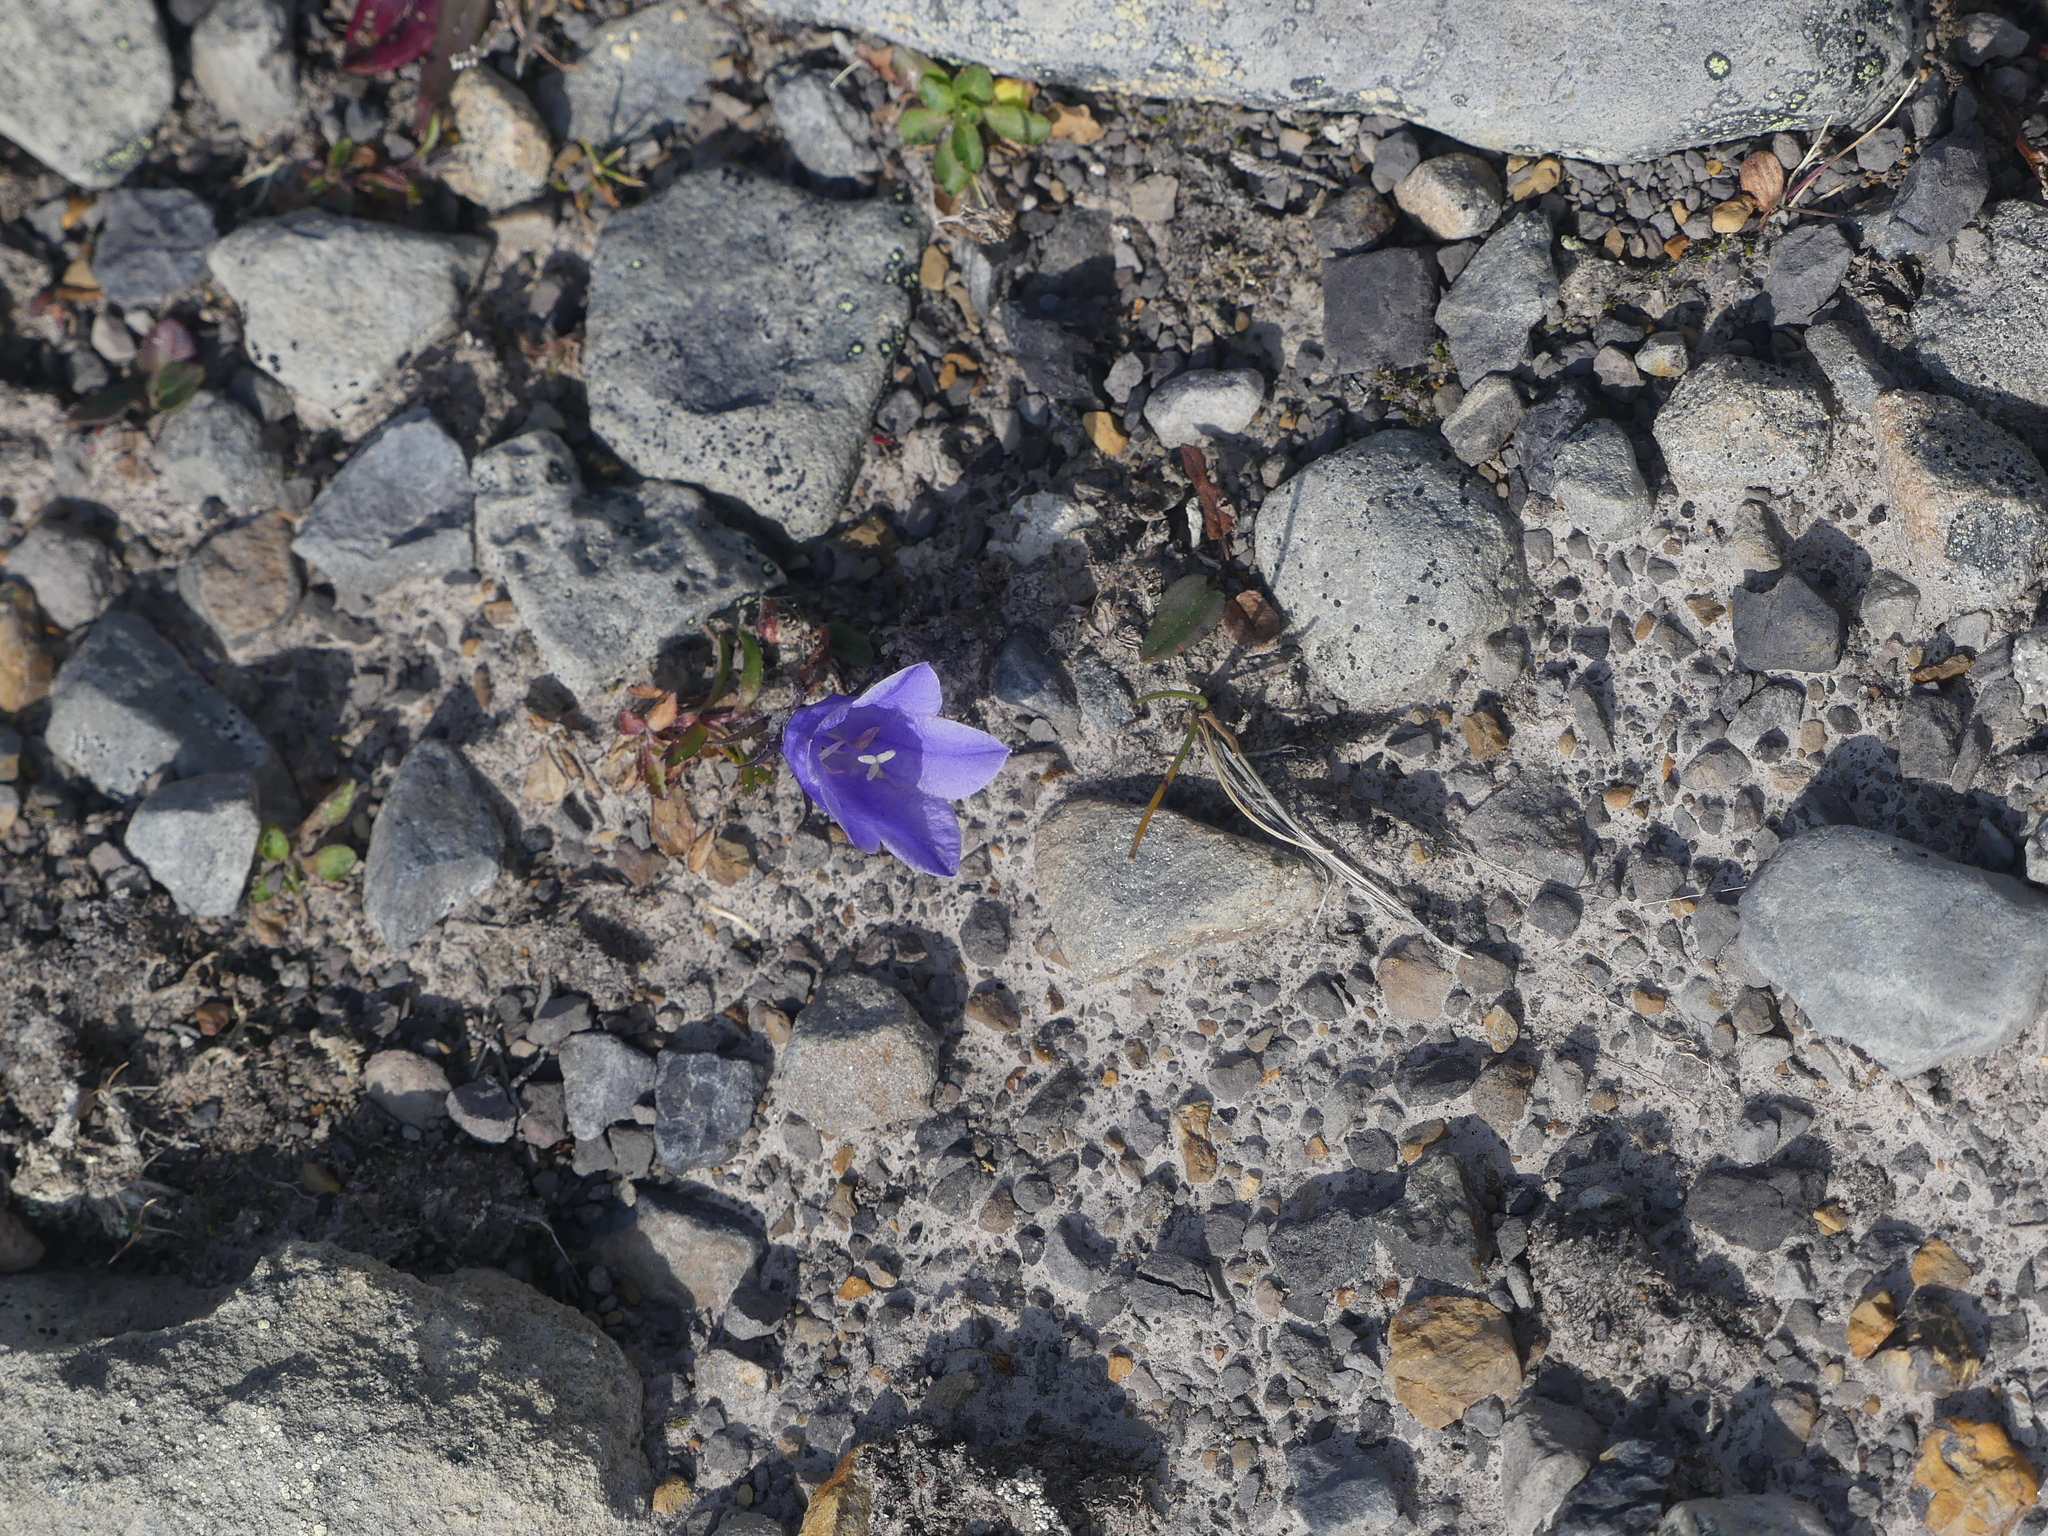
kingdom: Plantae
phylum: Tracheophyta
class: Magnoliopsida
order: Asterales
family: Campanulaceae
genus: Campanula
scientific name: Campanula lasiocarpa
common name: Mountain harebell
